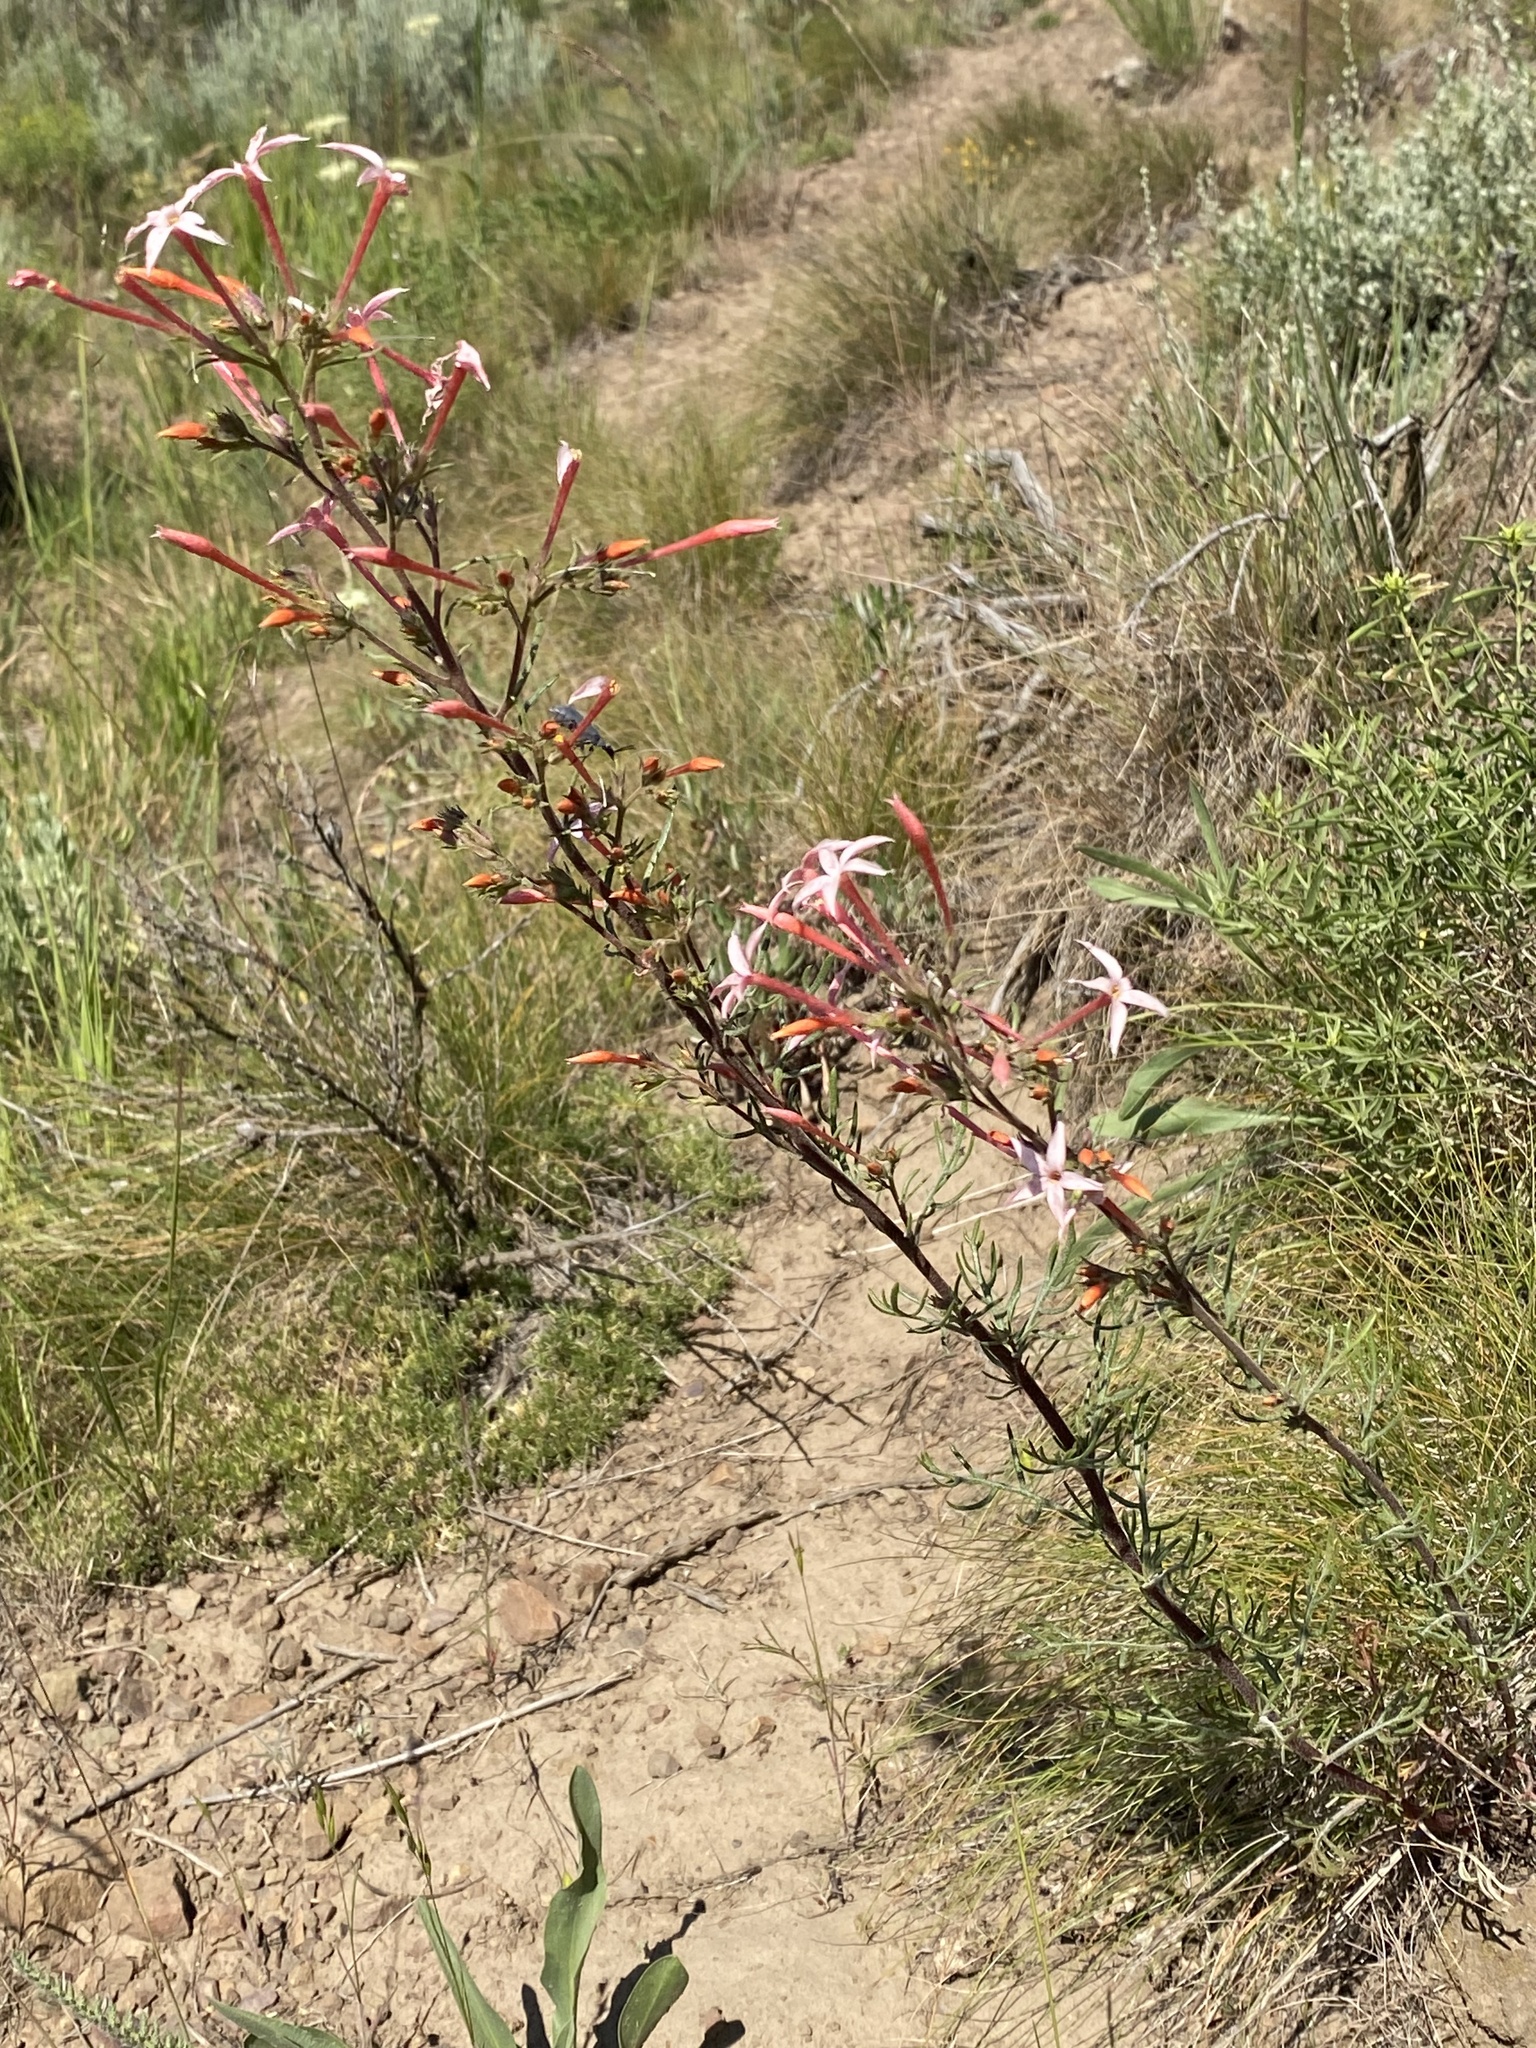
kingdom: Plantae
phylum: Tracheophyta
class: Magnoliopsida
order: Ericales
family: Polemoniaceae
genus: Ipomopsis
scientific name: Ipomopsis tenuituba
